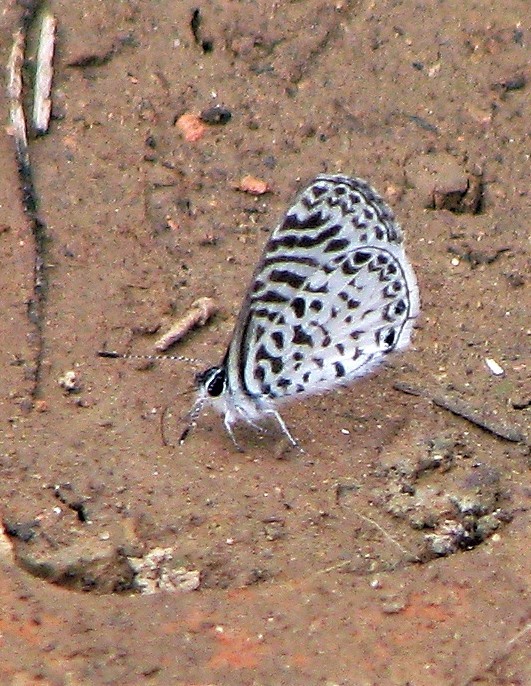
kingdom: Animalia
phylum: Arthropoda
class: Insecta
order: Lepidoptera
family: Lycaenidae
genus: Leptotes
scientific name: Leptotes cassius
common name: Cassius blue
